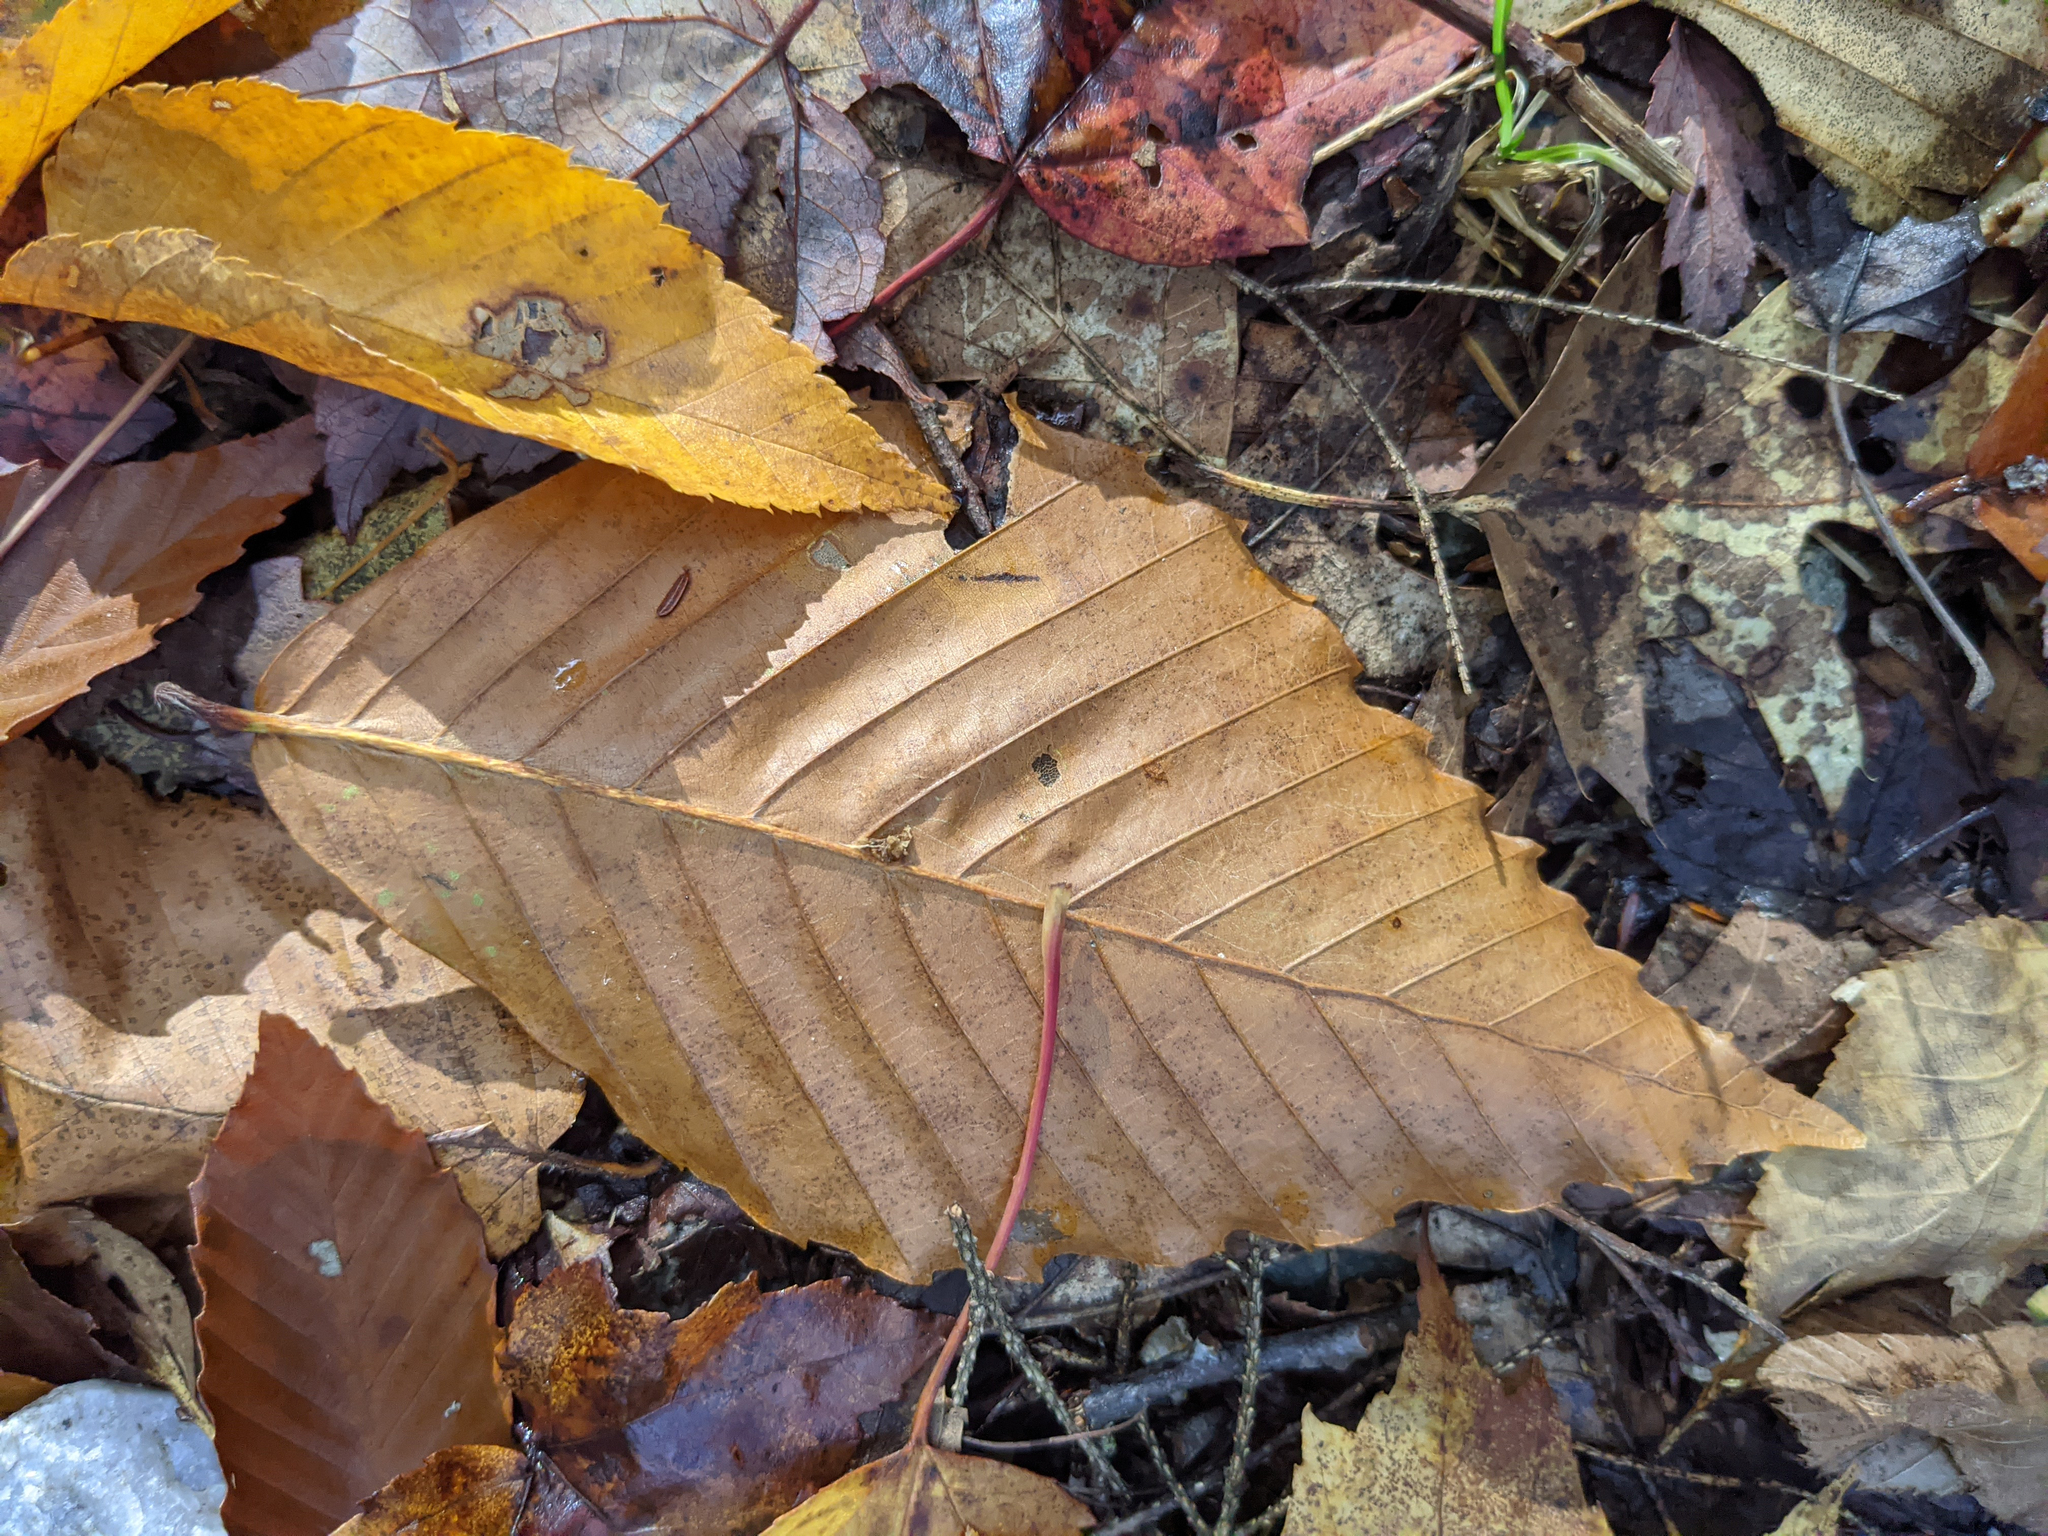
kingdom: Plantae
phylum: Tracheophyta
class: Magnoliopsida
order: Fagales
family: Fagaceae
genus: Fagus
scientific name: Fagus grandifolia
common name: American beech
